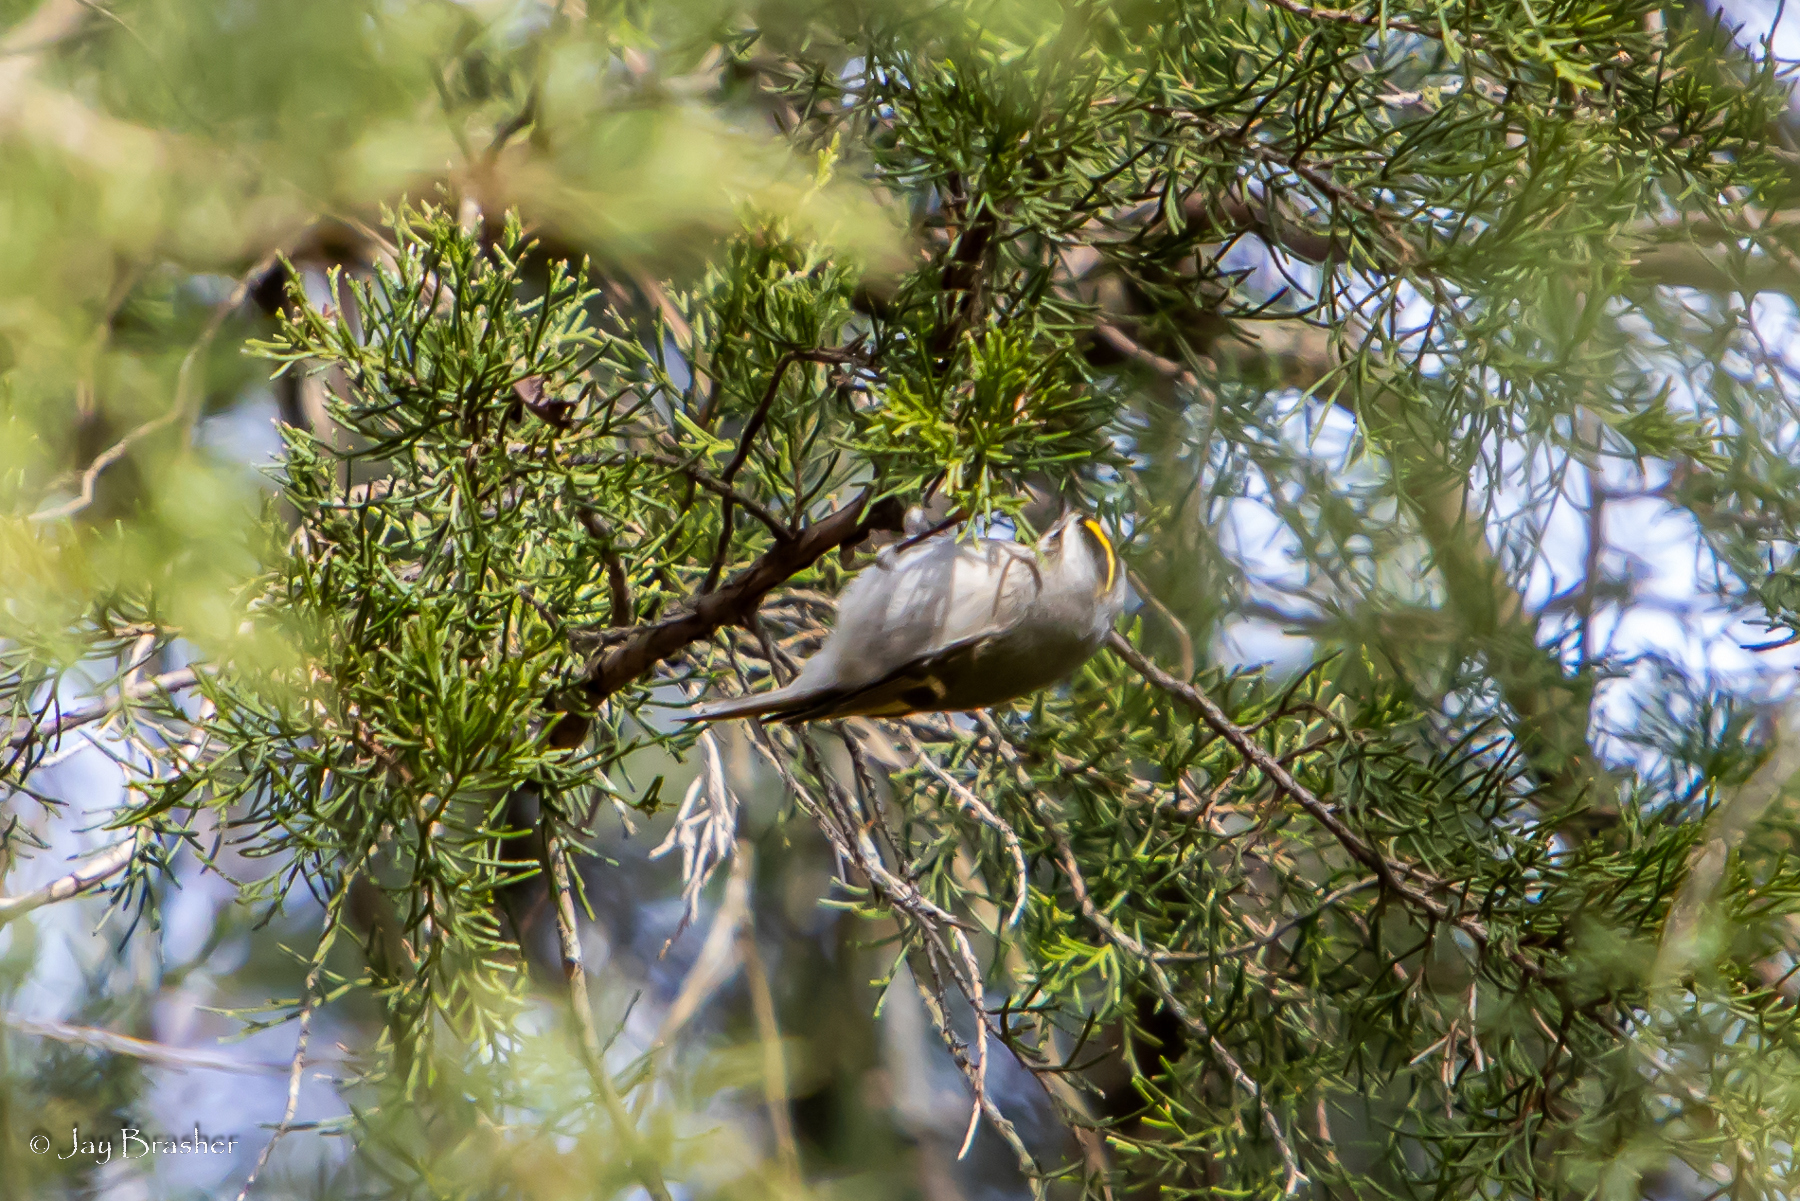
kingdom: Animalia
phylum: Chordata
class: Aves
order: Passeriformes
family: Regulidae
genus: Regulus
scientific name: Regulus satrapa
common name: Golden-crowned kinglet
